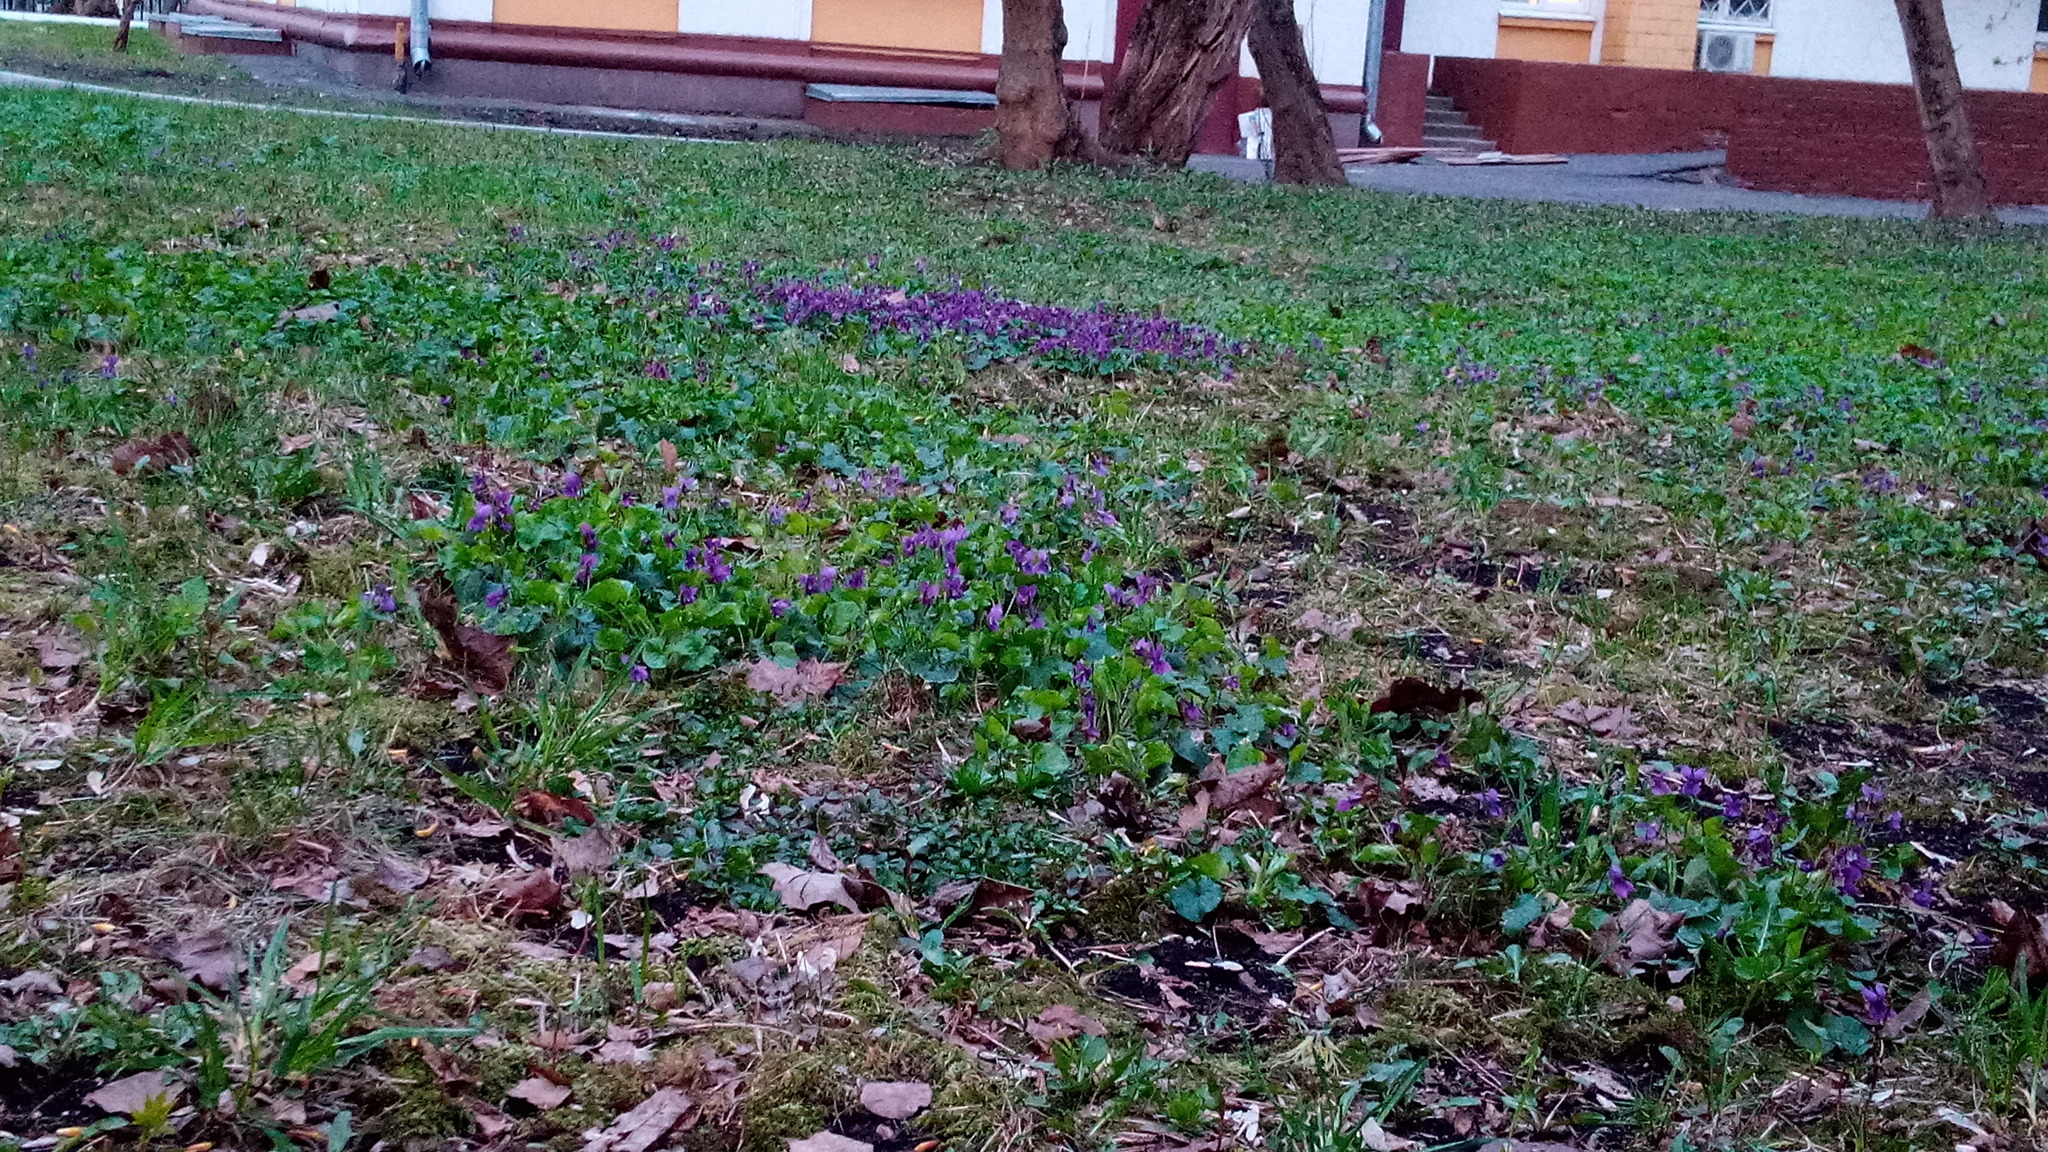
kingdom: Plantae
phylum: Tracheophyta
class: Magnoliopsida
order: Malpighiales
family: Violaceae
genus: Viola
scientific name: Viola odorata
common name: Sweet violet
